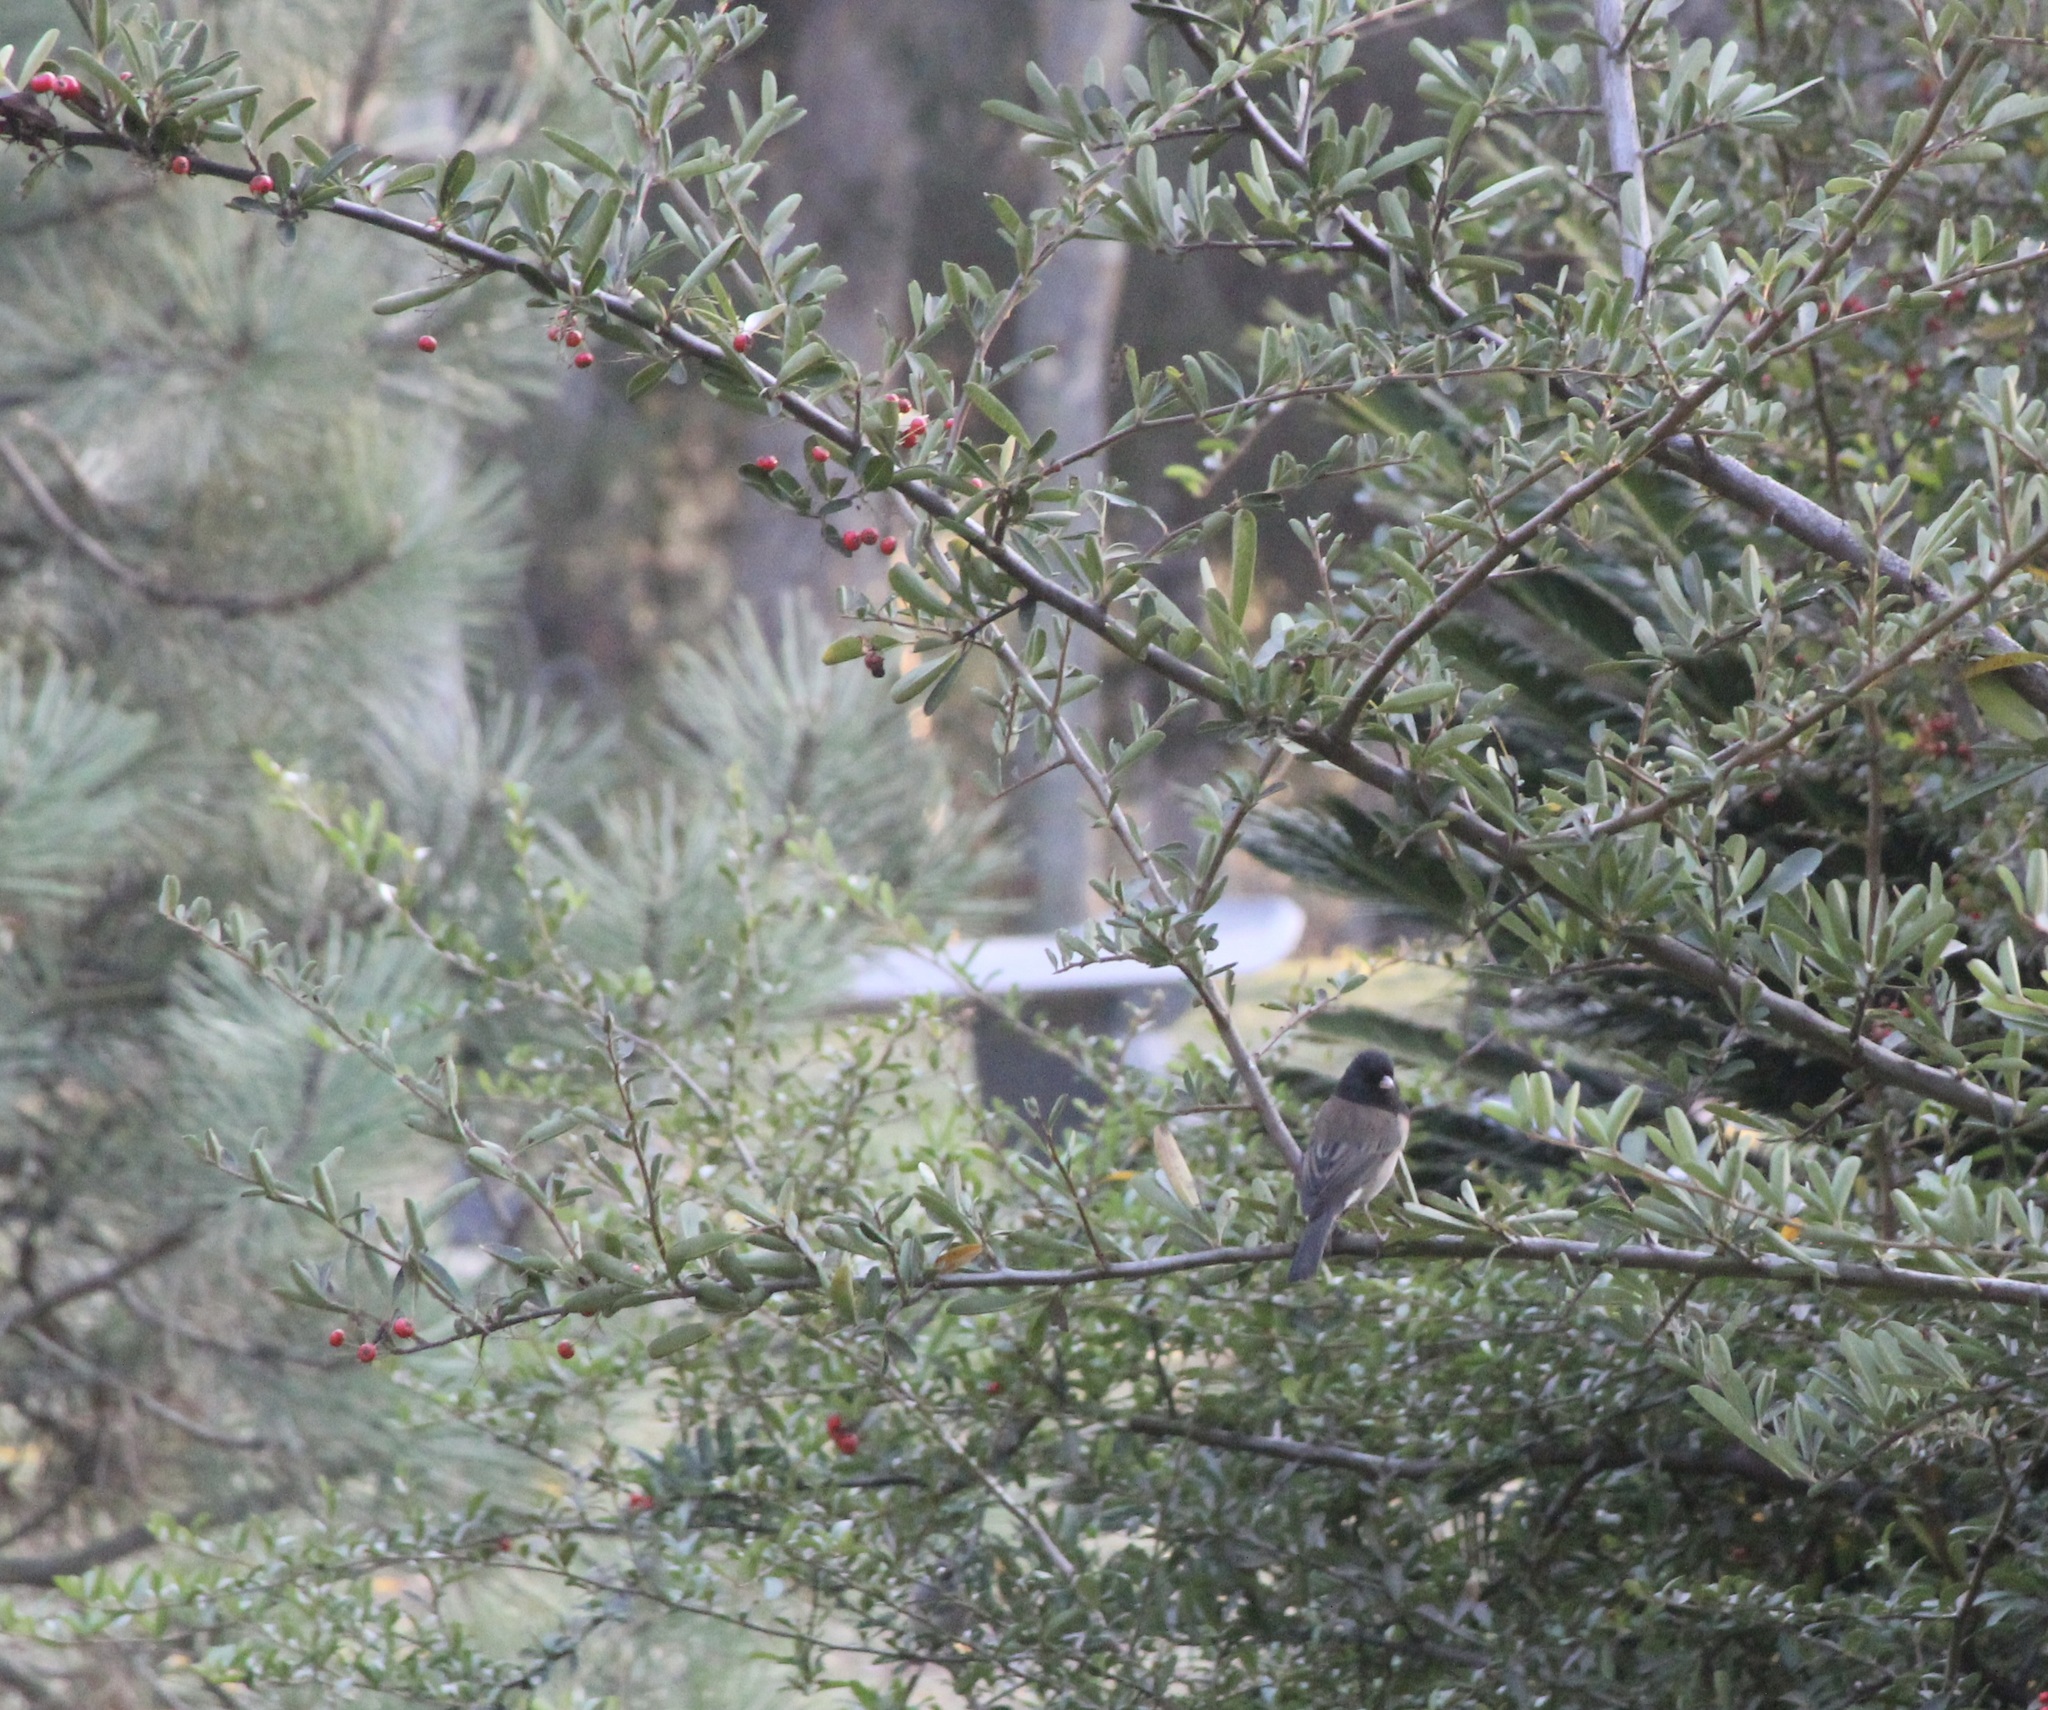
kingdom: Animalia
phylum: Chordata
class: Aves
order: Passeriformes
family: Passerellidae
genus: Junco
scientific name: Junco hyemalis
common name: Dark-eyed junco
